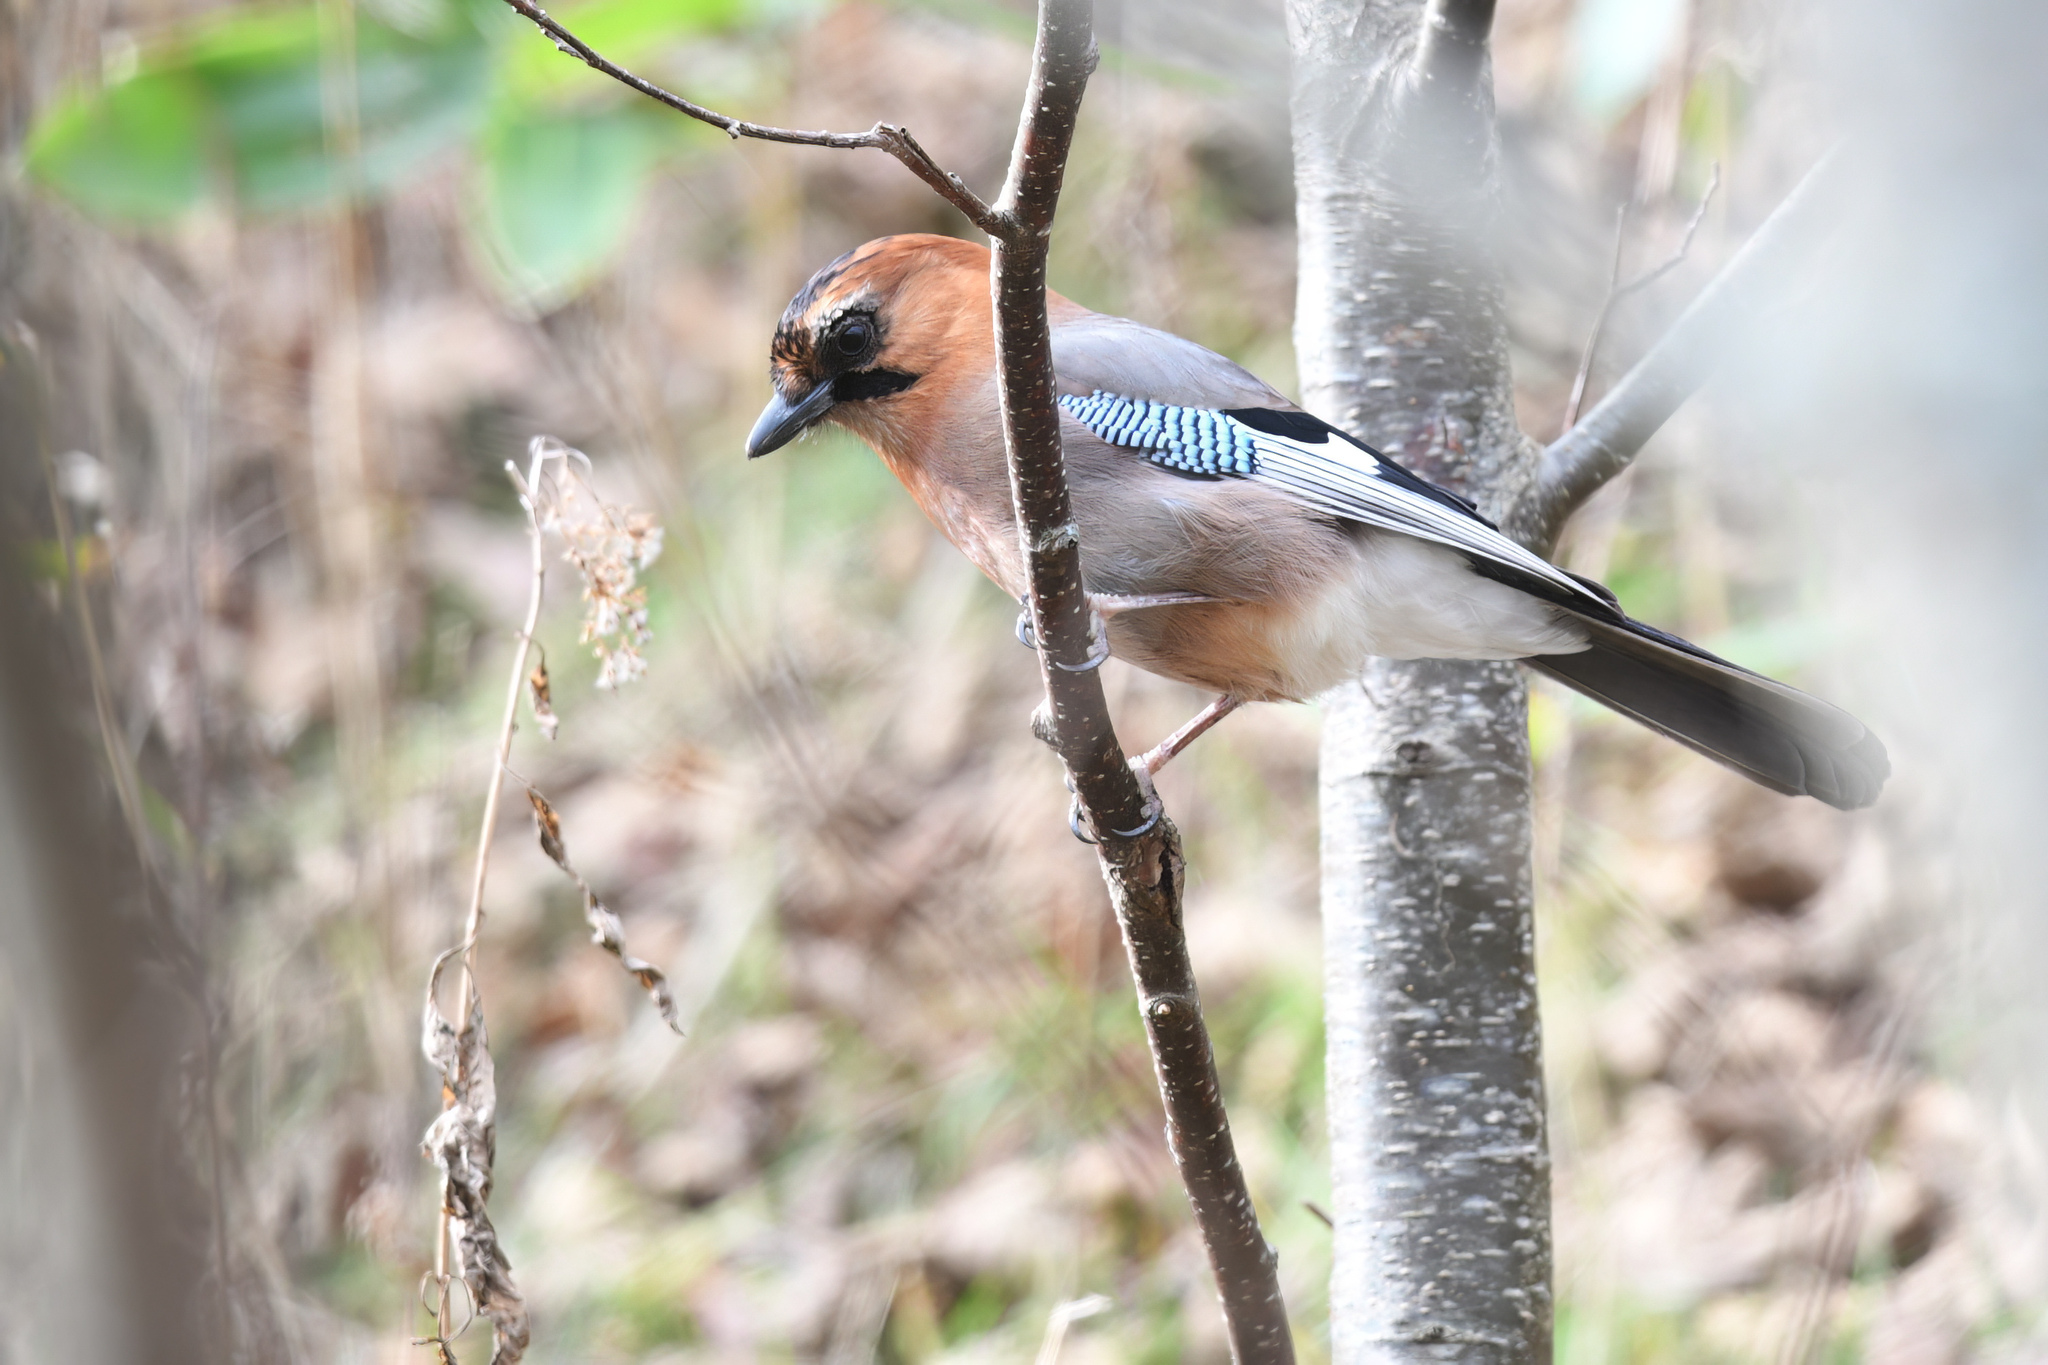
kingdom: Animalia
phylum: Chordata
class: Aves
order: Passeriformes
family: Corvidae
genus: Garrulus
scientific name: Garrulus glandarius
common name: Eurasian jay
